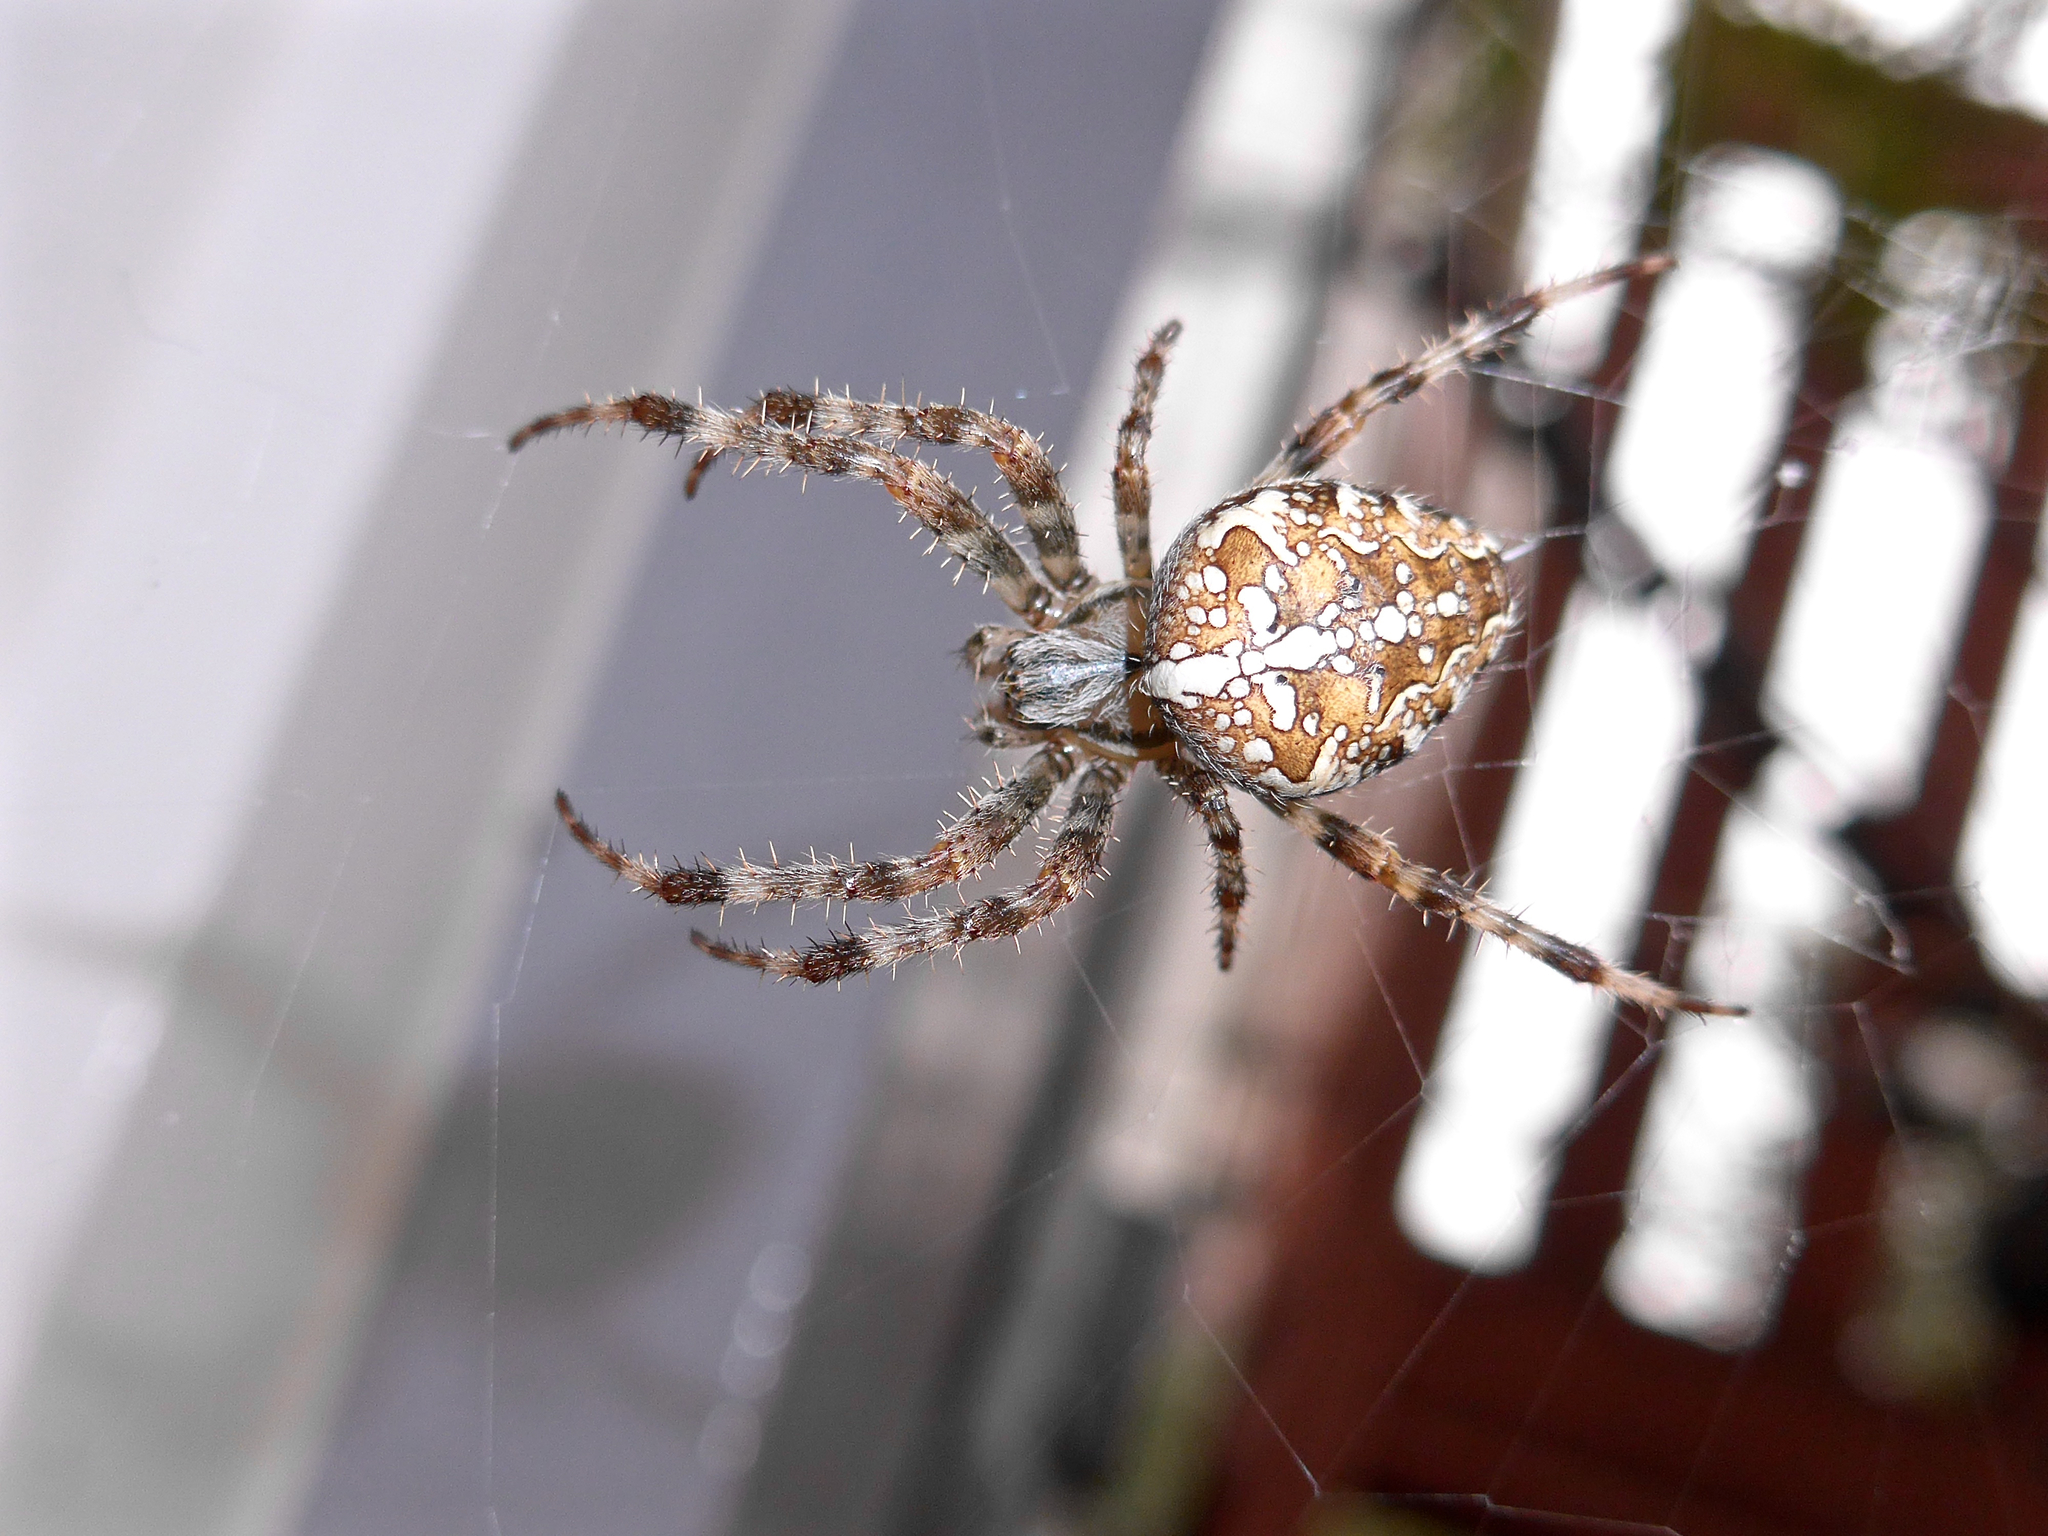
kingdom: Animalia
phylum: Arthropoda
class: Arachnida
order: Araneae
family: Araneidae
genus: Araneus
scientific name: Araneus diadematus
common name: Cross orbweaver
